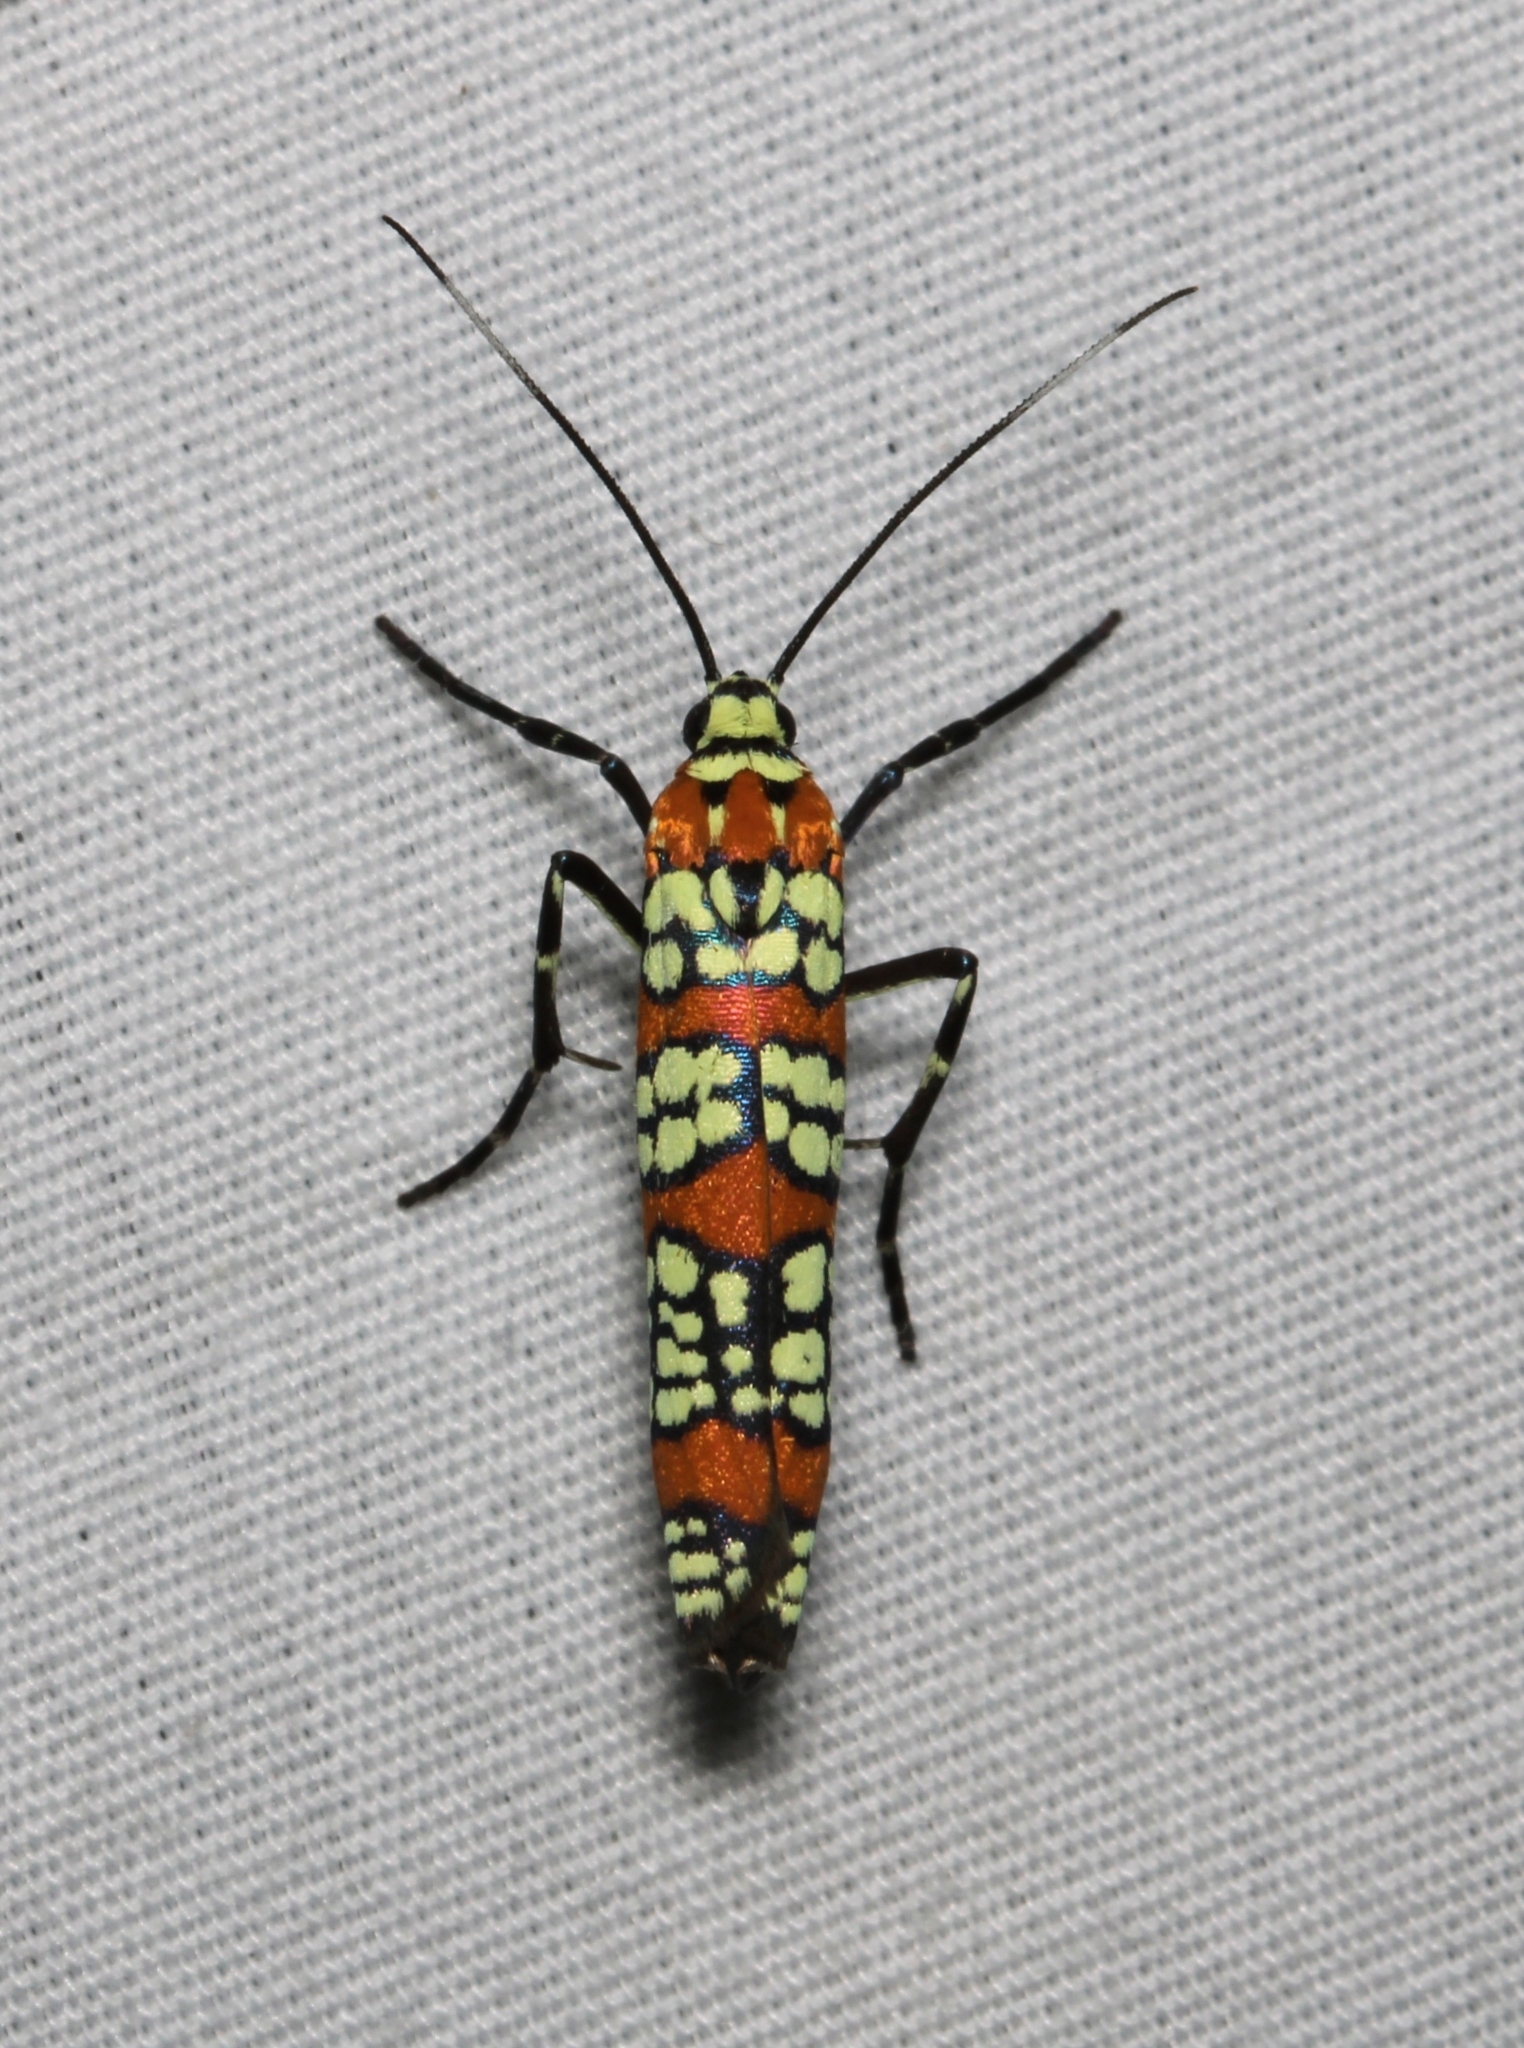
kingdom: Animalia
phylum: Arthropoda
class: Insecta
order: Lepidoptera
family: Attevidae
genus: Atteva
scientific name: Atteva punctella
